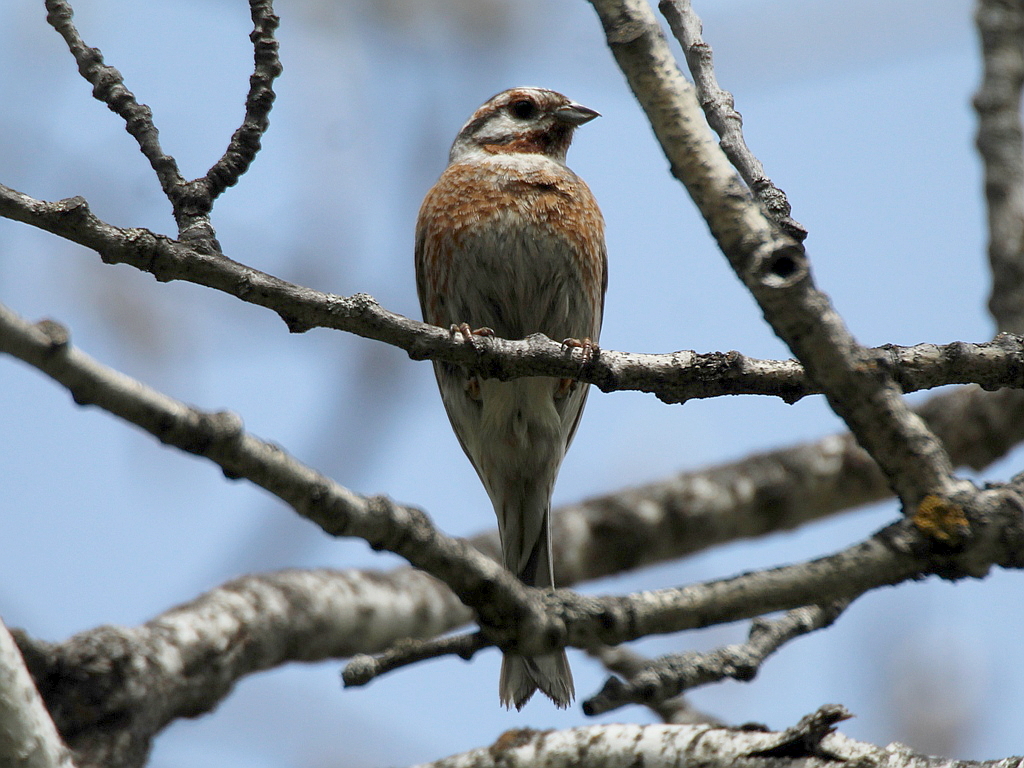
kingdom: Animalia
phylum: Chordata
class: Aves
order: Passeriformes
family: Emberizidae
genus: Emberiza
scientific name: Emberiza
